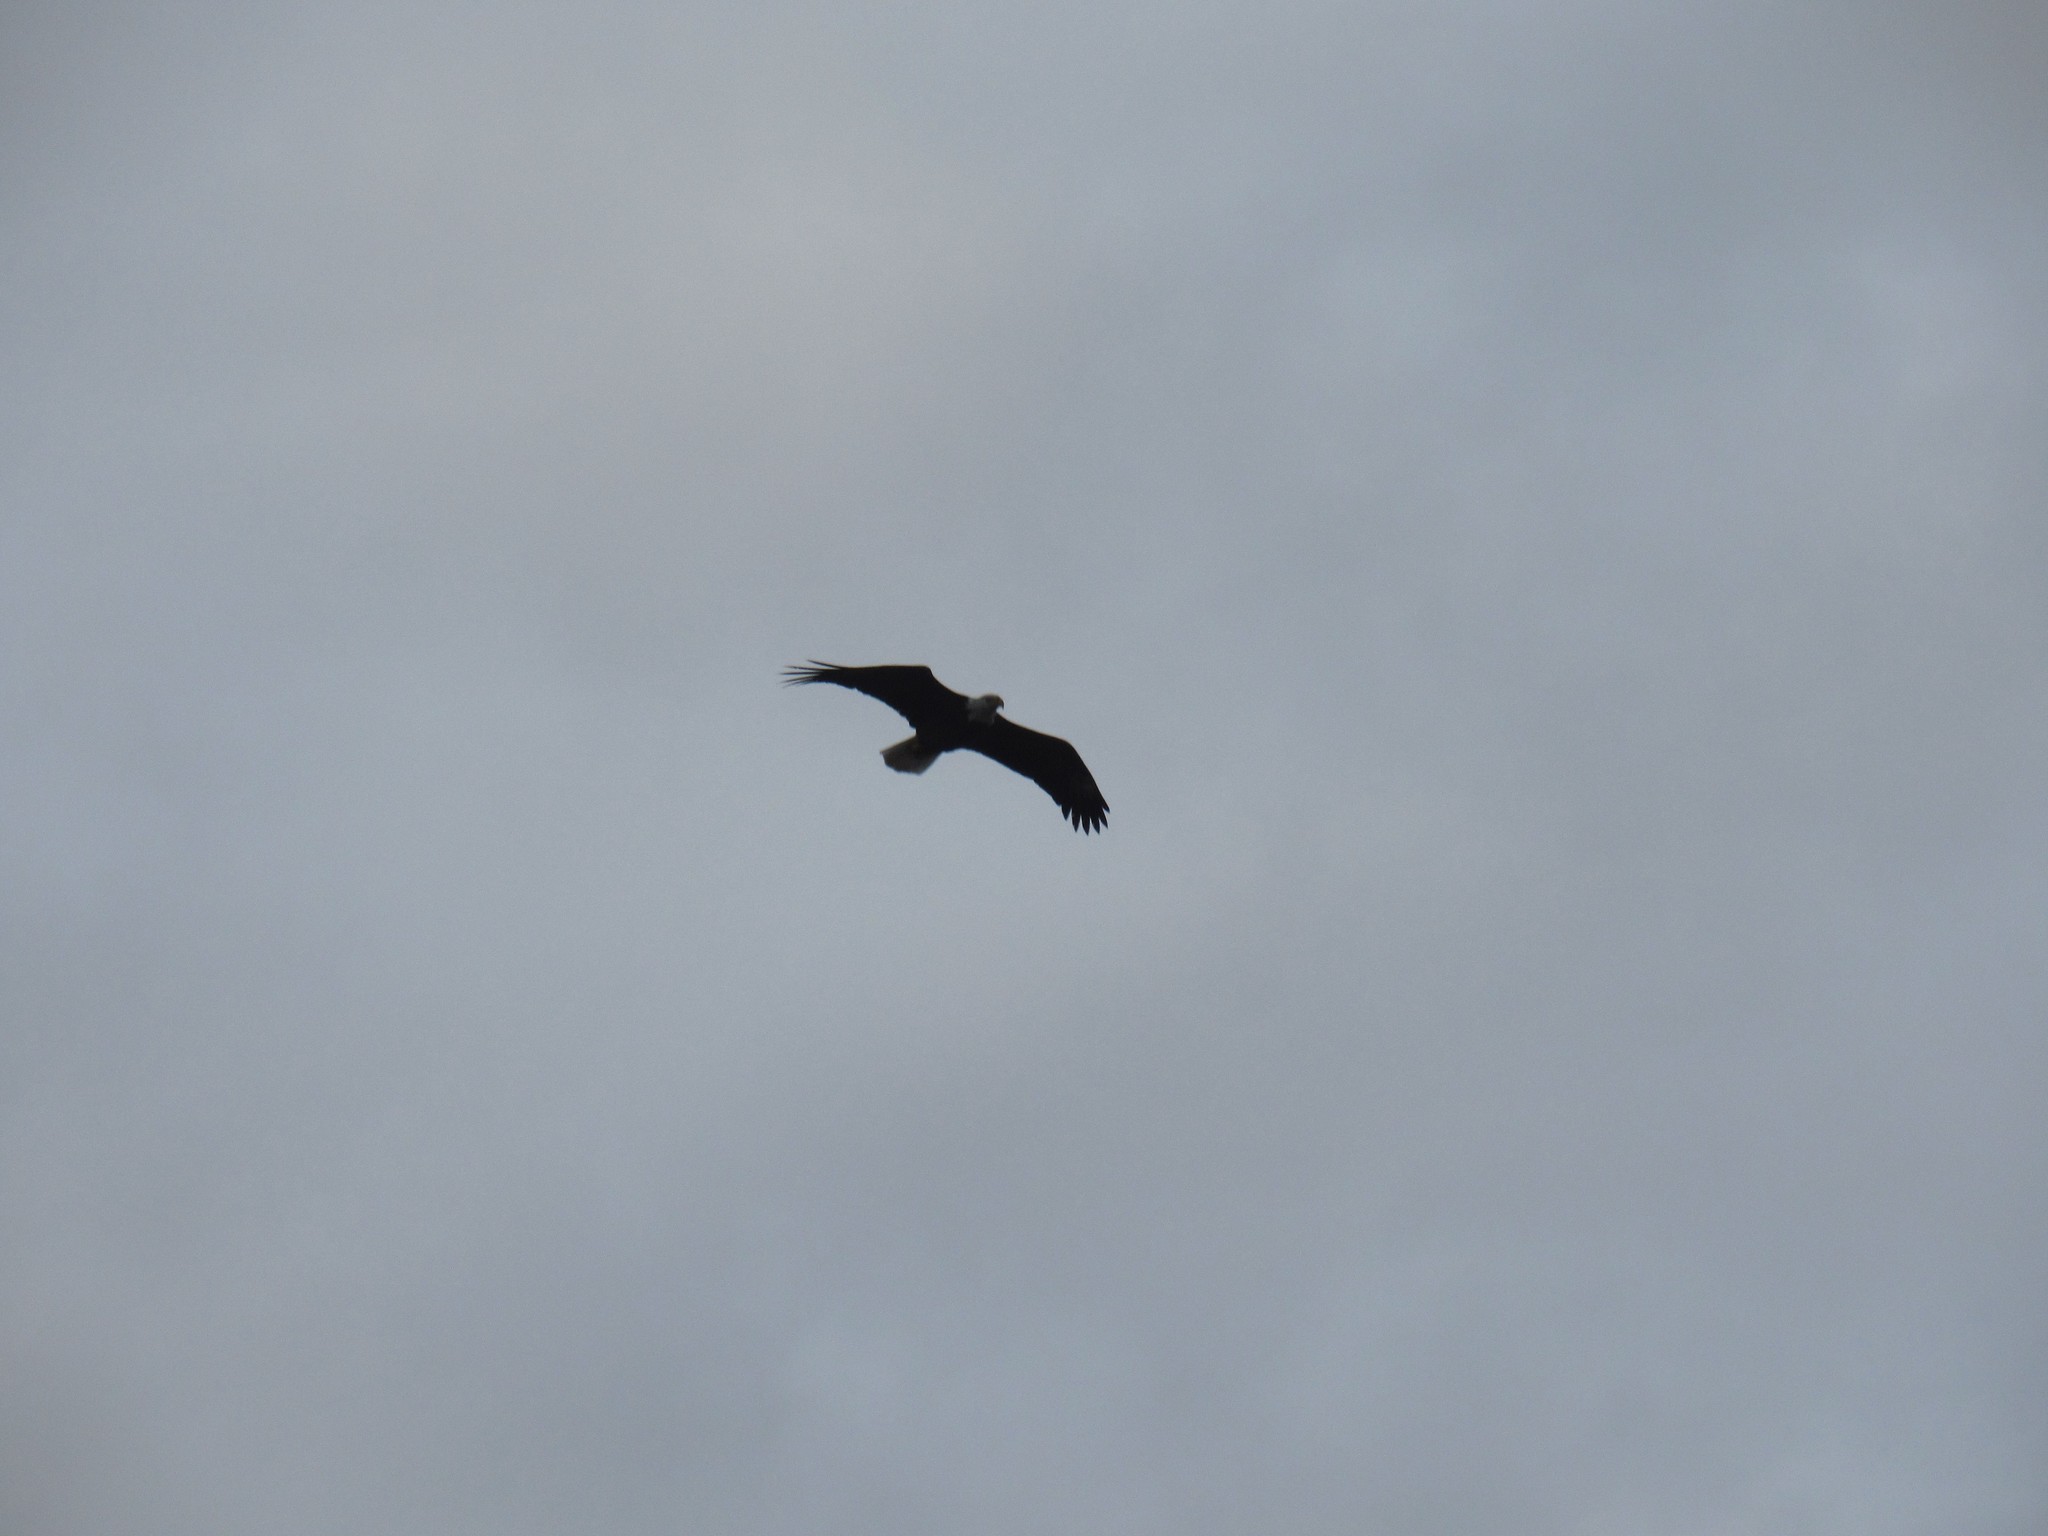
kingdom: Animalia
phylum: Chordata
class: Aves
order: Accipitriformes
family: Accipitridae
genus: Haliaeetus
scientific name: Haliaeetus leucocephalus
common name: Bald eagle
